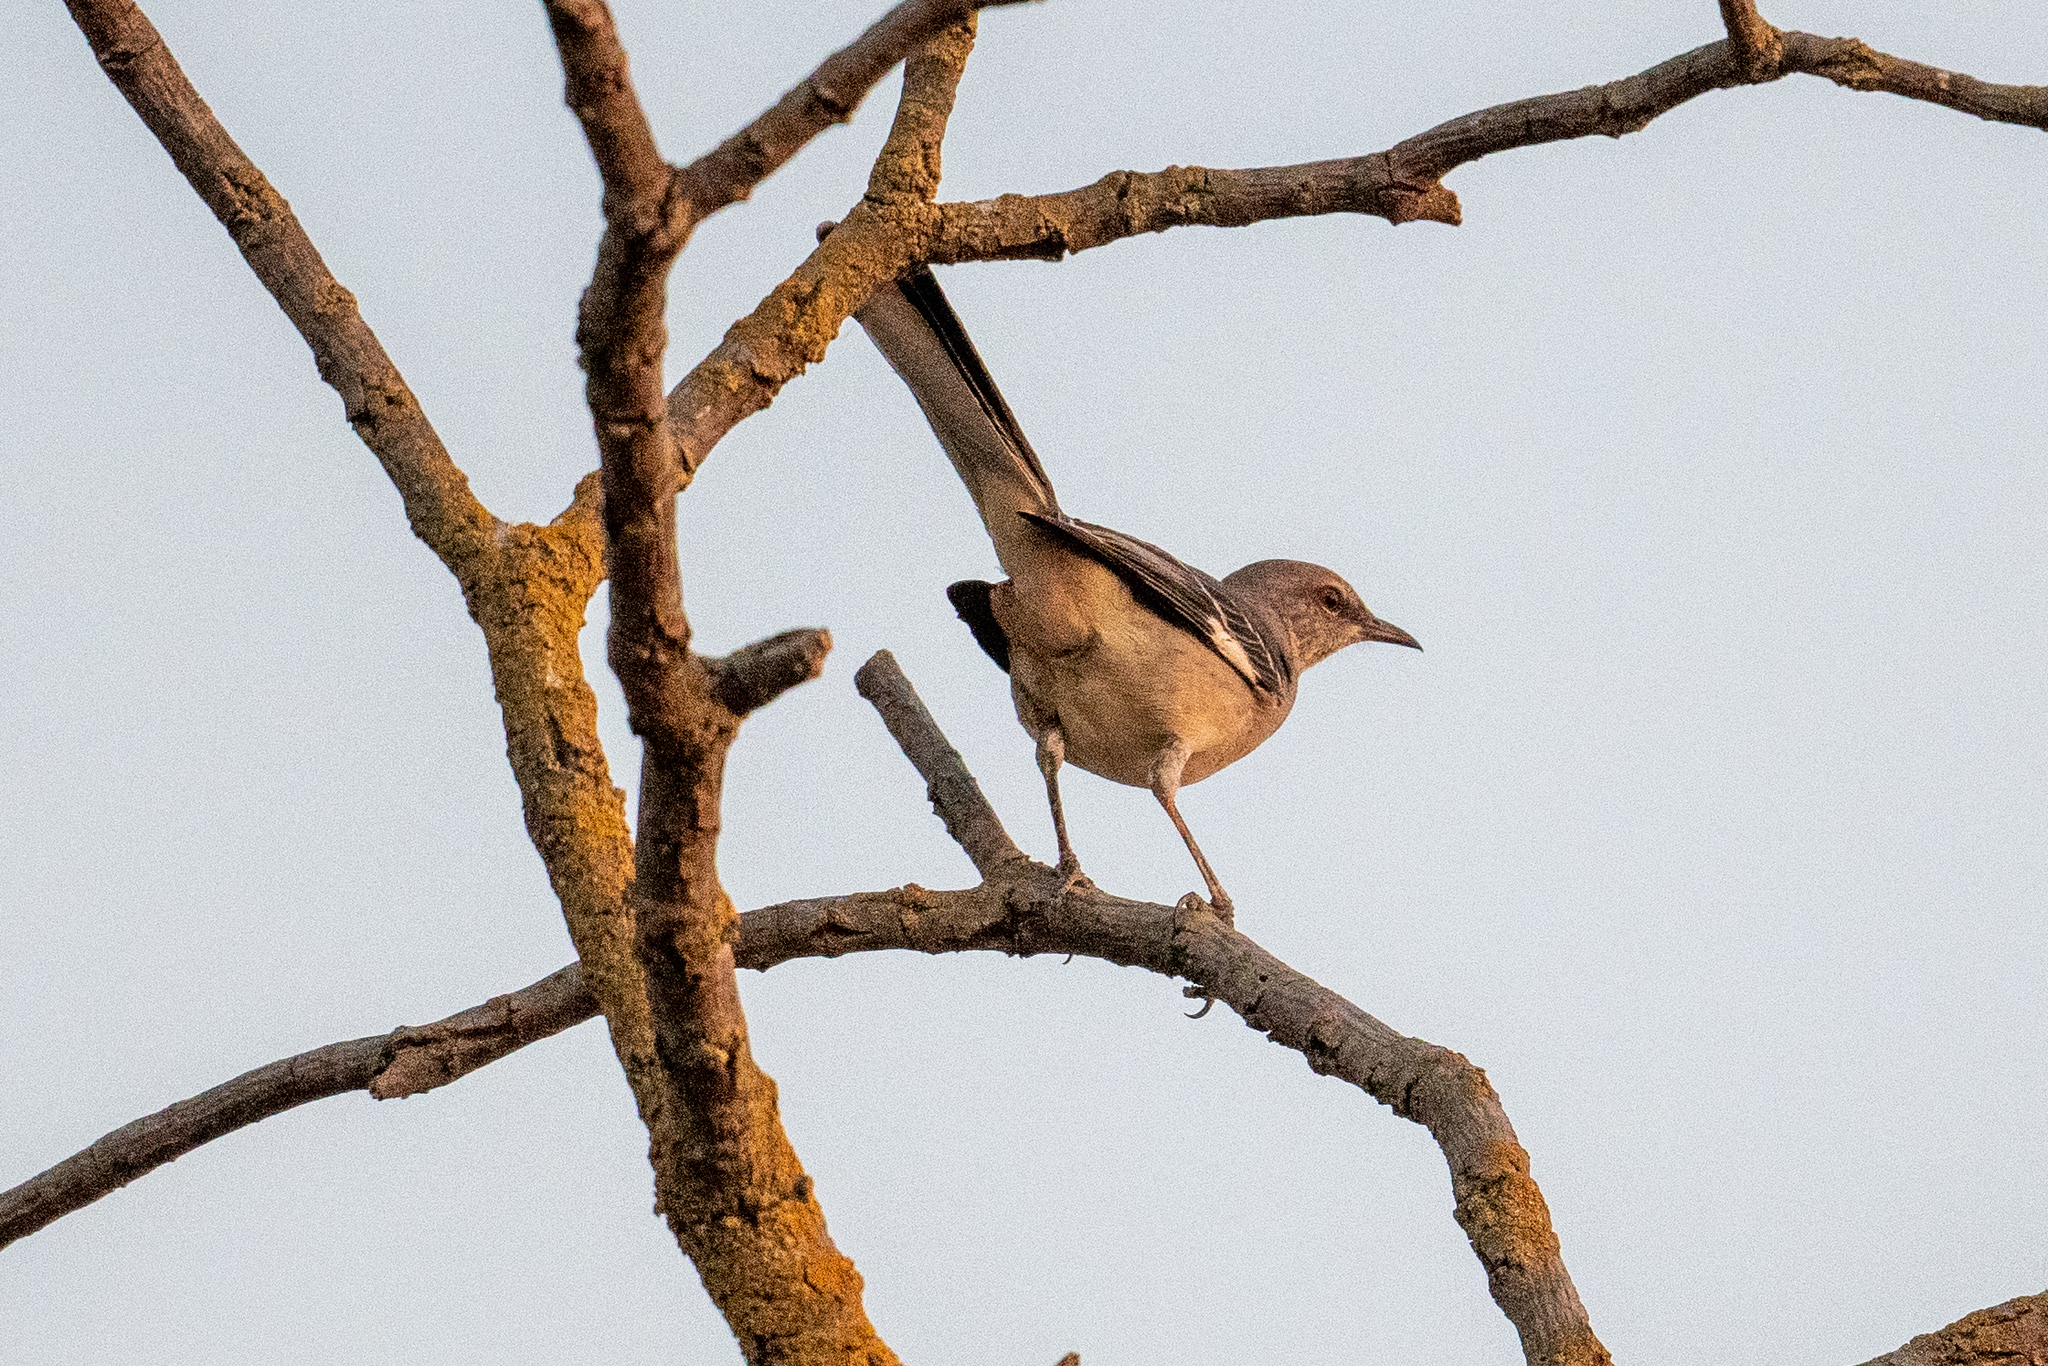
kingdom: Animalia
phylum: Chordata
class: Aves
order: Passeriformes
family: Mimidae
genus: Mimus
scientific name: Mimus polyglottos
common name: Northern mockingbird
